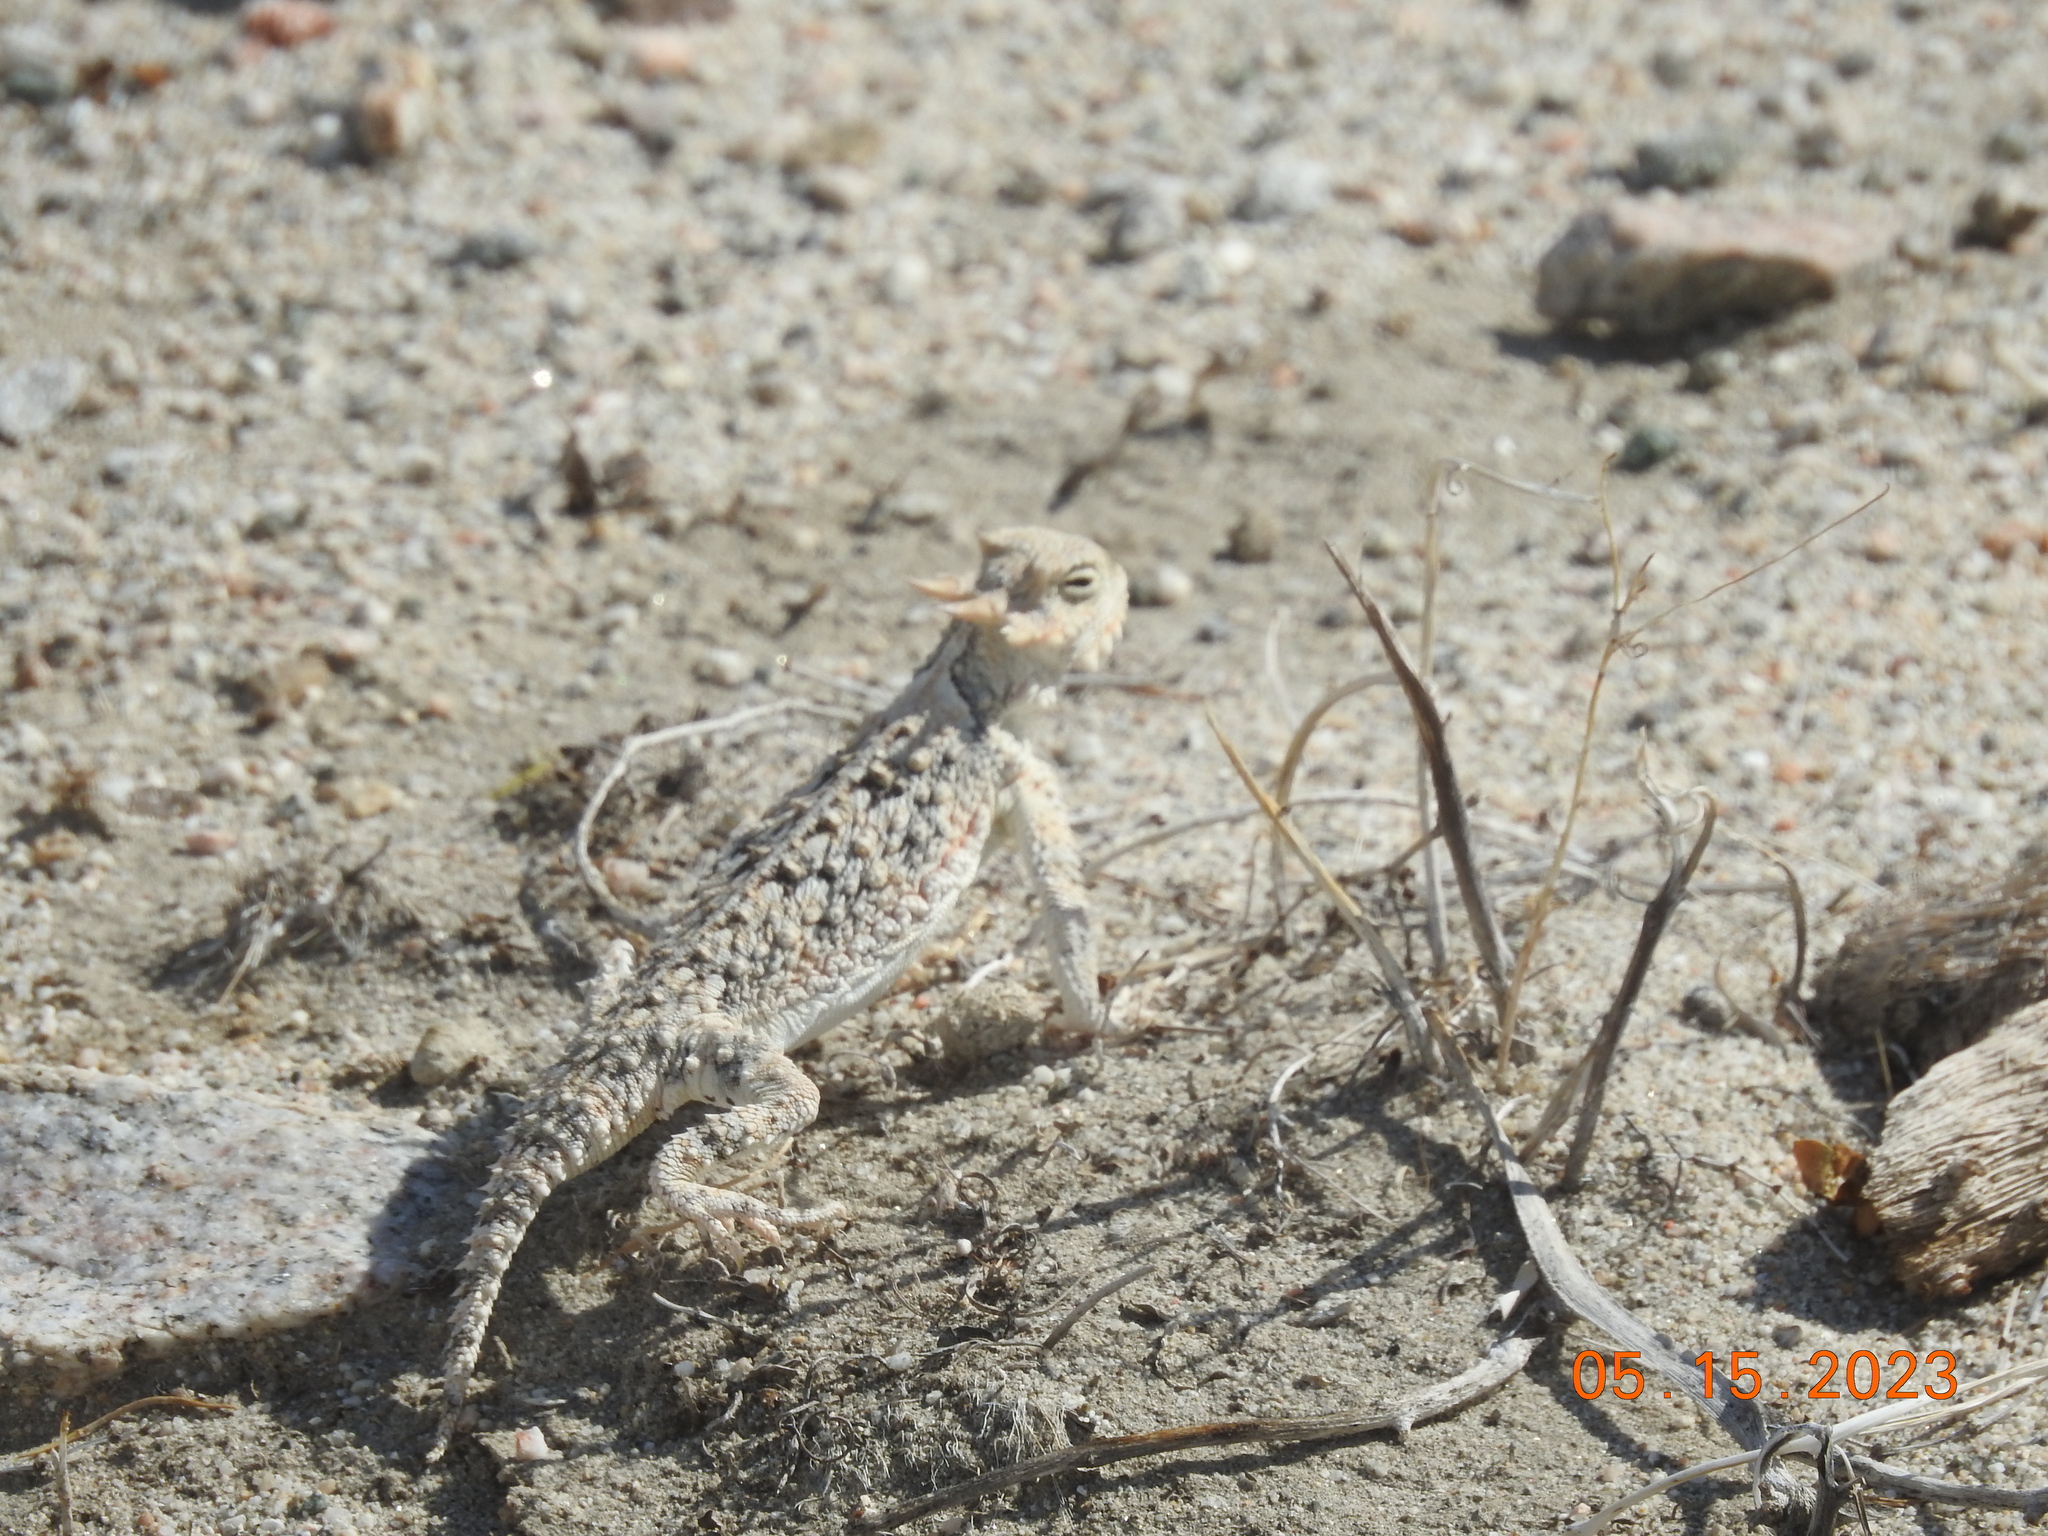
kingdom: Animalia
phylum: Chordata
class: Squamata
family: Phrynosomatidae
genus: Phrynosoma
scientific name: Phrynosoma platyrhinos
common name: Desert horned lizard
